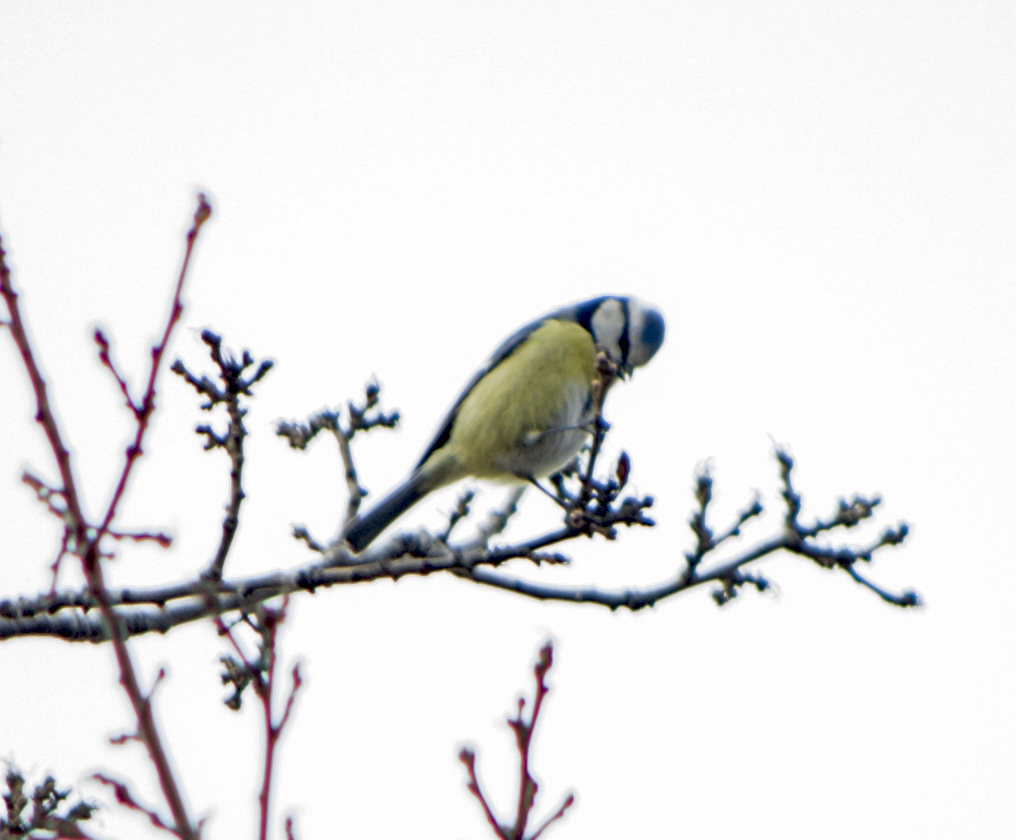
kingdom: Animalia
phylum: Chordata
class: Aves
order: Passeriformes
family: Paridae
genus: Cyanistes
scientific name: Cyanistes caeruleus
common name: Eurasian blue tit
